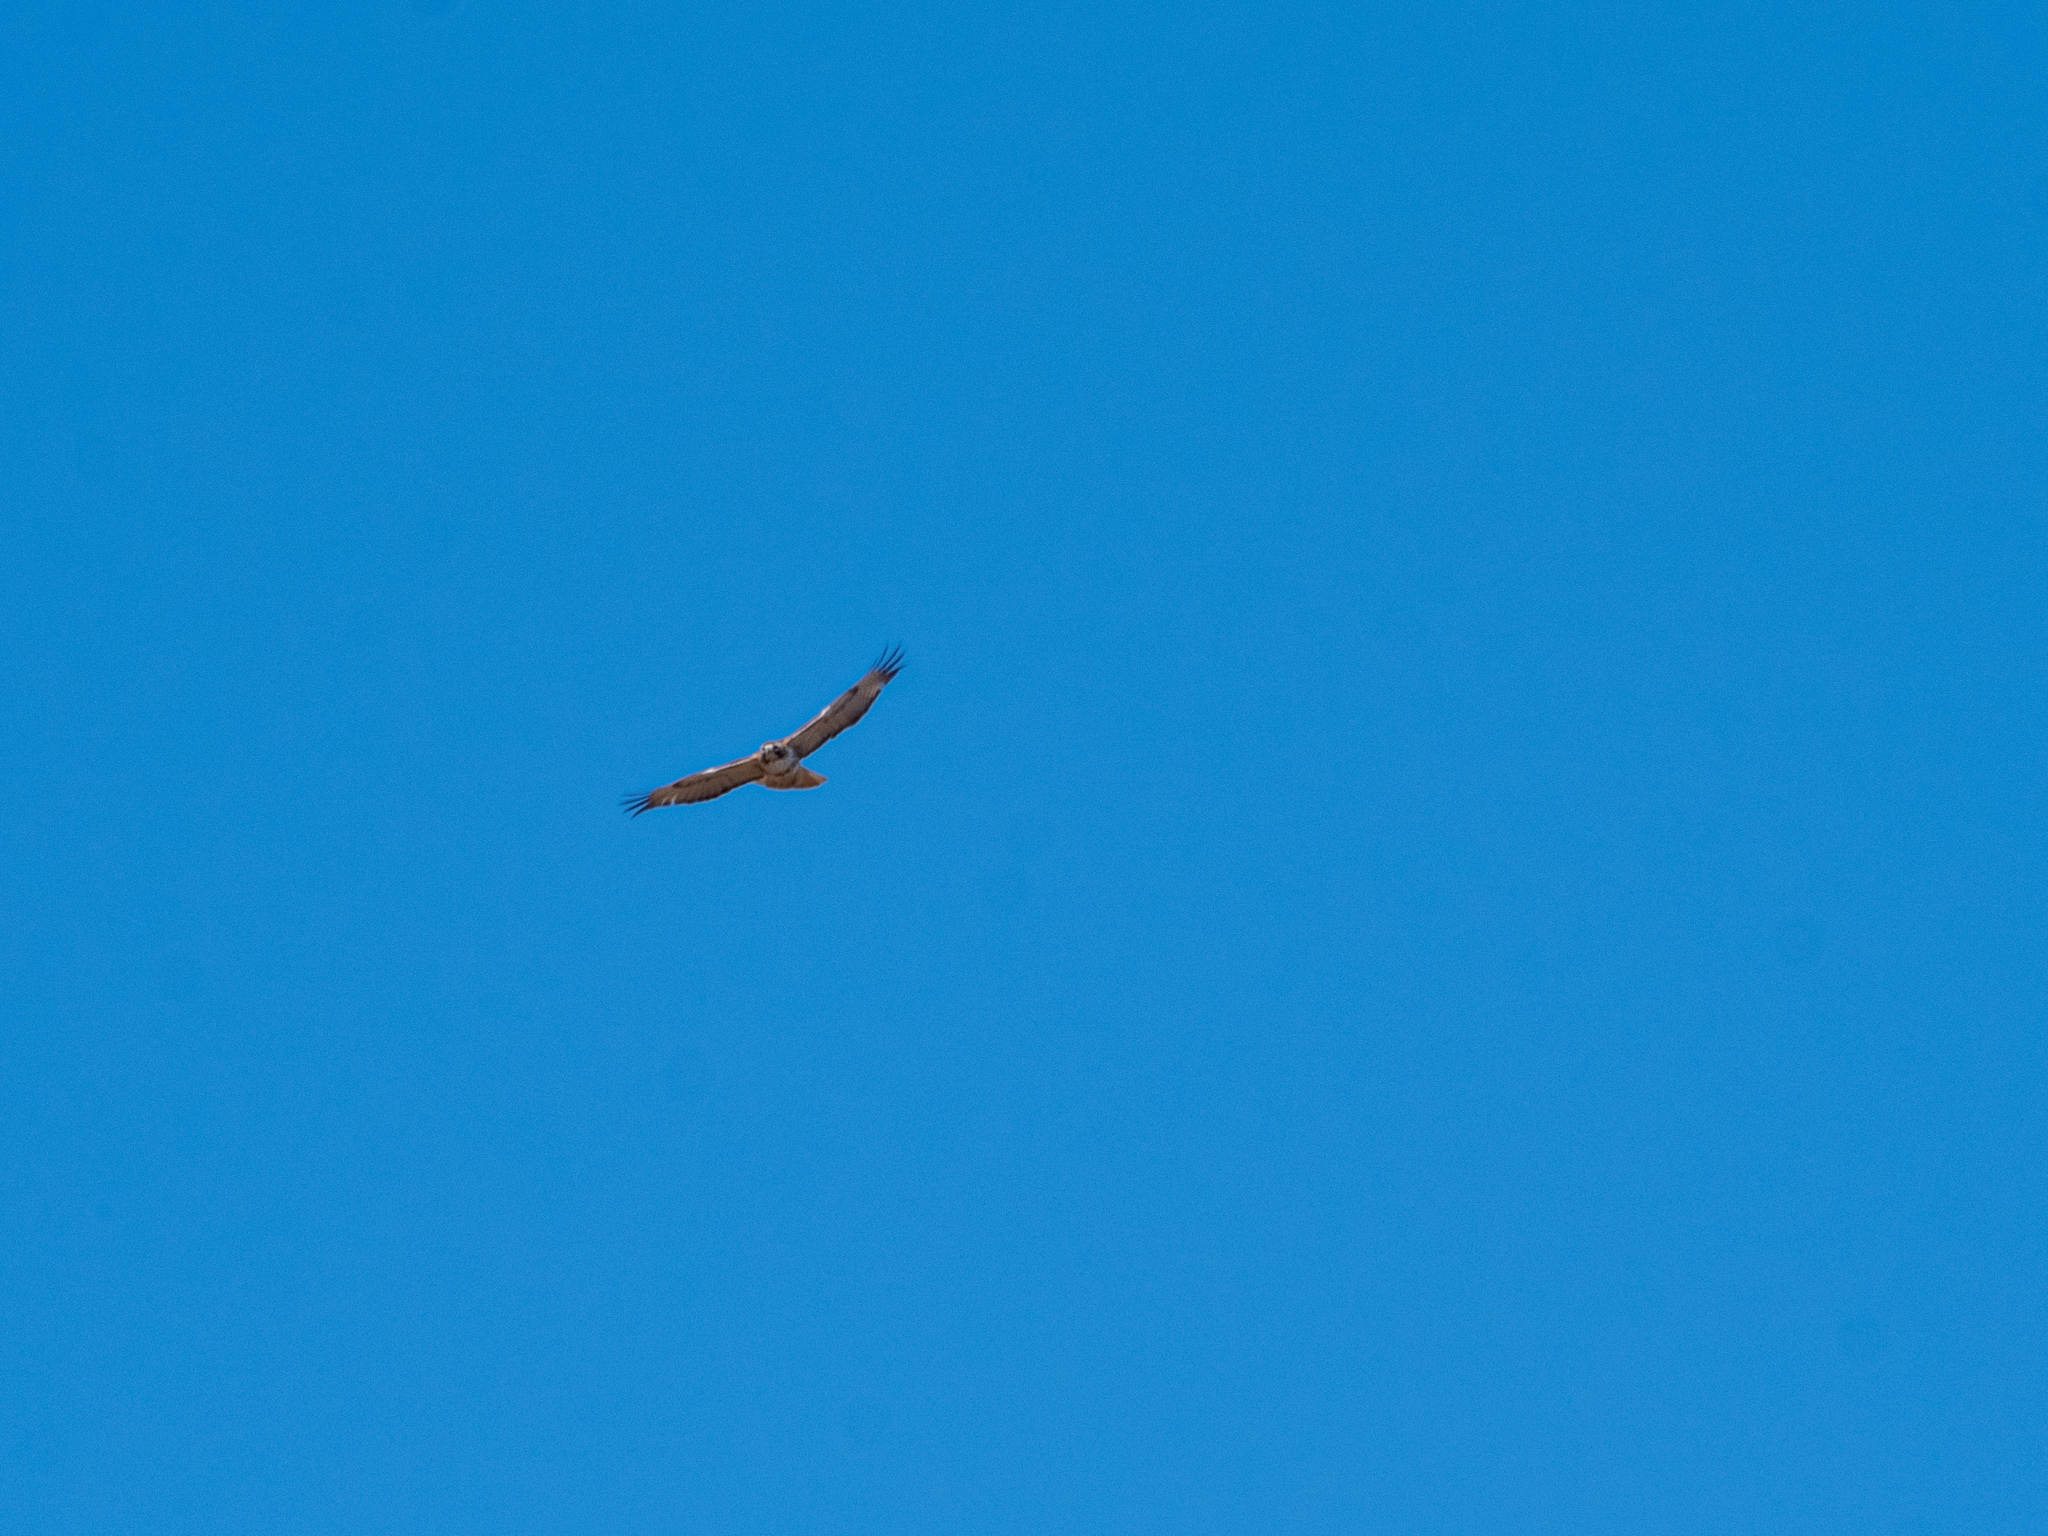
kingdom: Animalia
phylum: Chordata
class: Aves
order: Accipitriformes
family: Accipitridae
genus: Buteo
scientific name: Buteo jamaicensis
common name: Red-tailed hawk
